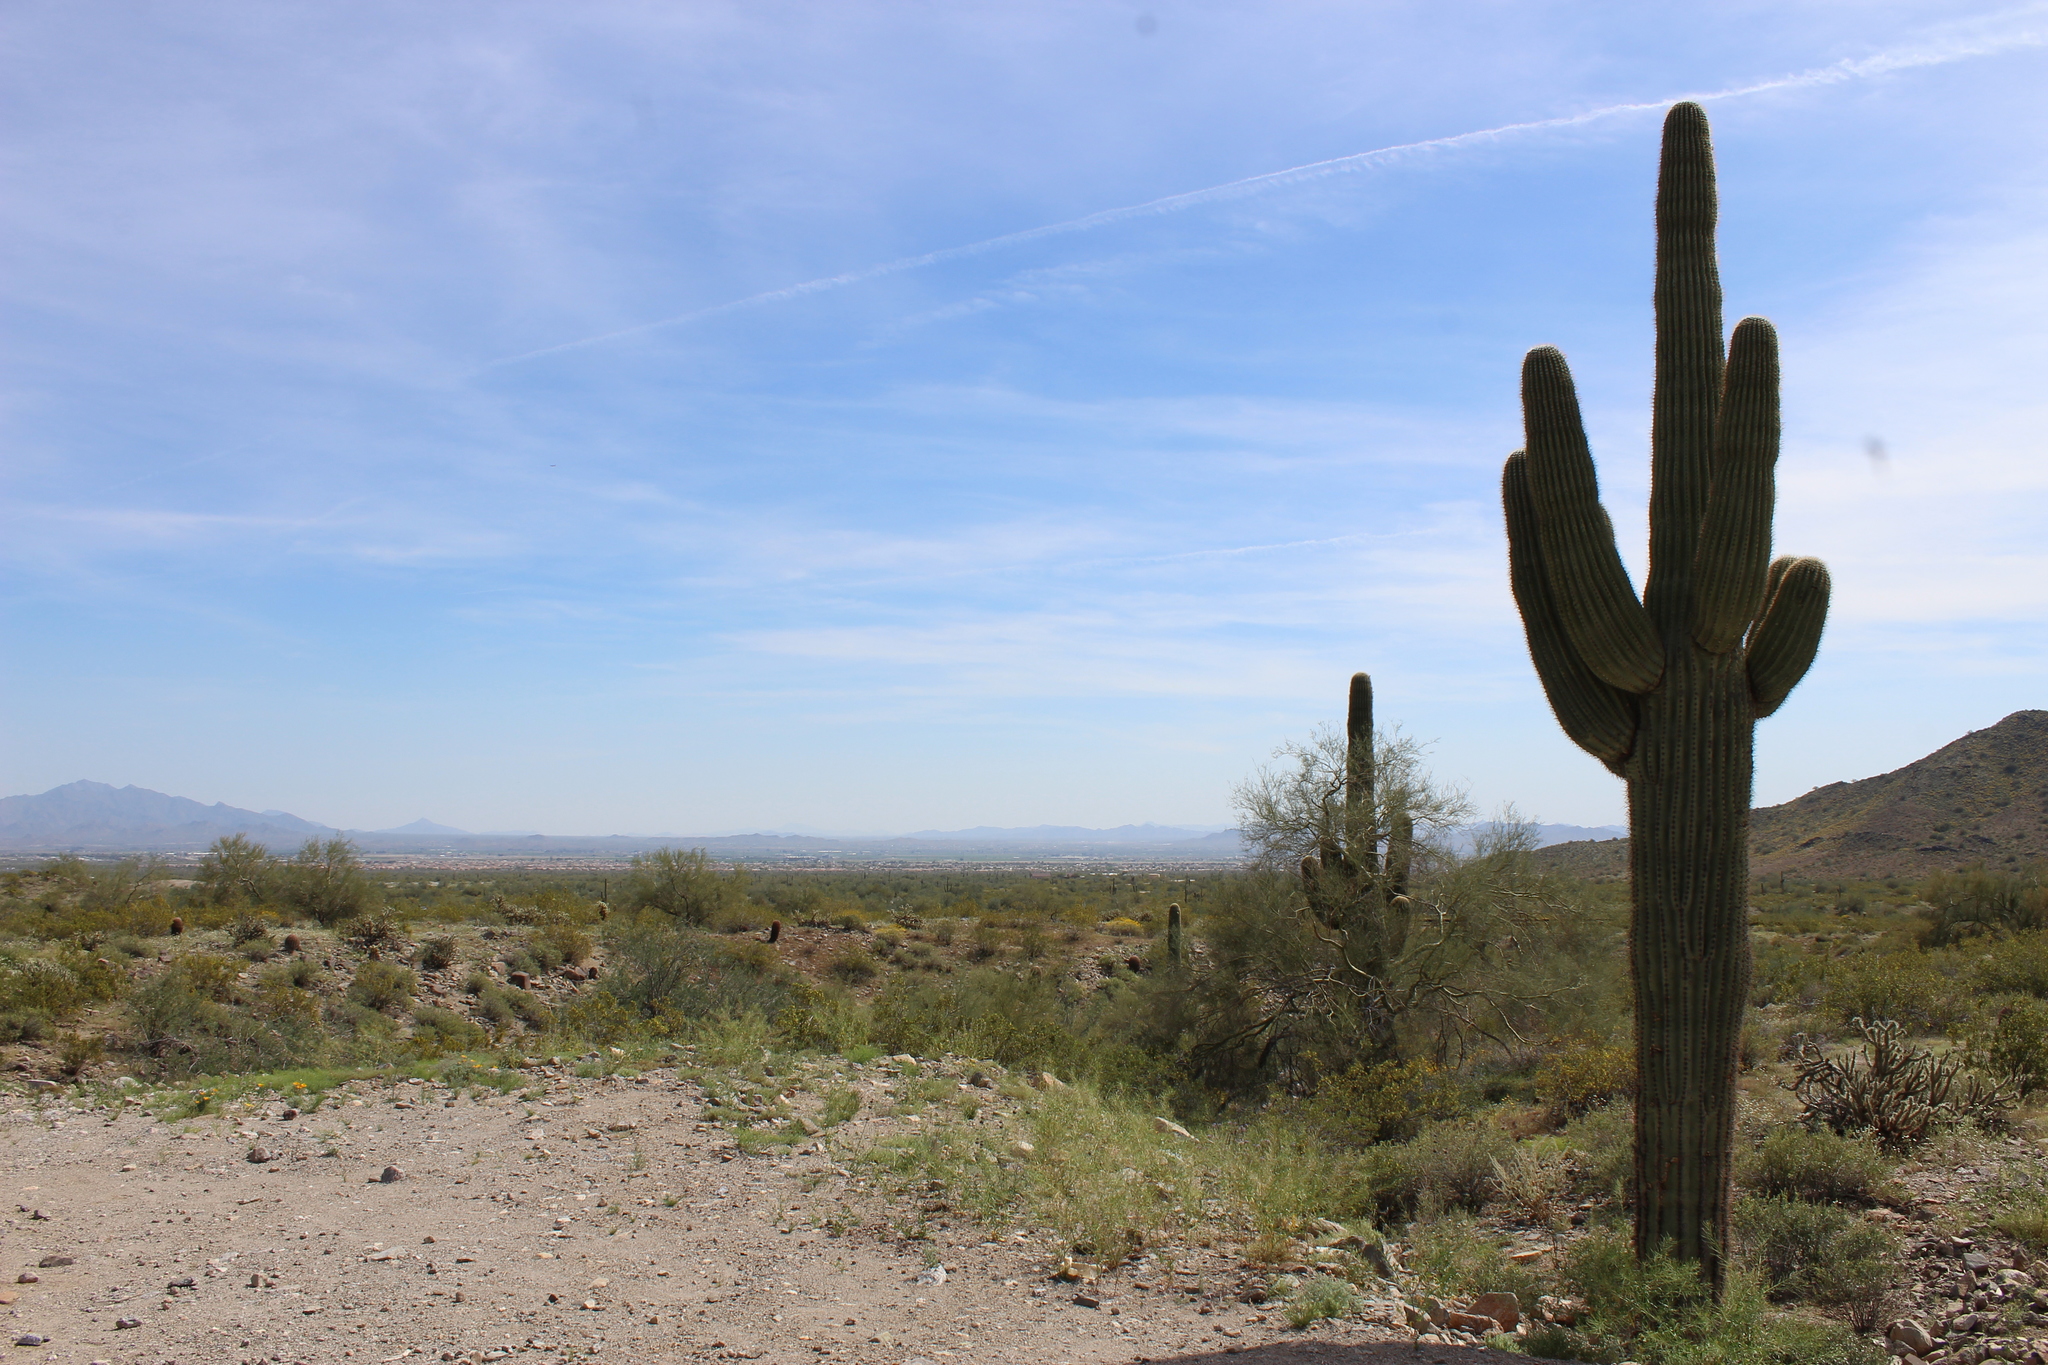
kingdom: Plantae
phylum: Tracheophyta
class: Magnoliopsida
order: Caryophyllales
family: Cactaceae
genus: Carnegiea
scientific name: Carnegiea gigantea
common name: Saguaro
